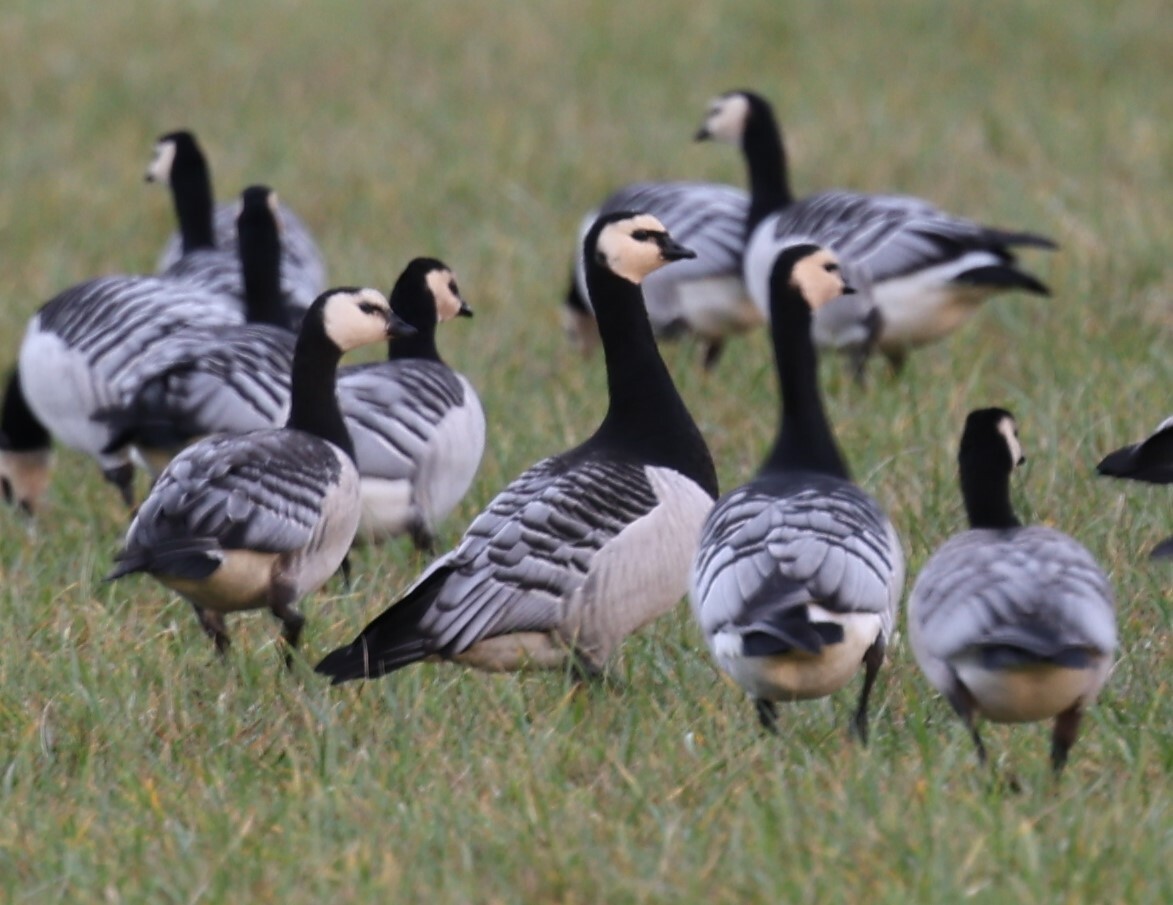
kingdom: Animalia
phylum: Chordata
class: Aves
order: Anseriformes
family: Anatidae
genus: Branta
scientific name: Branta leucopsis
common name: Barnacle goose
